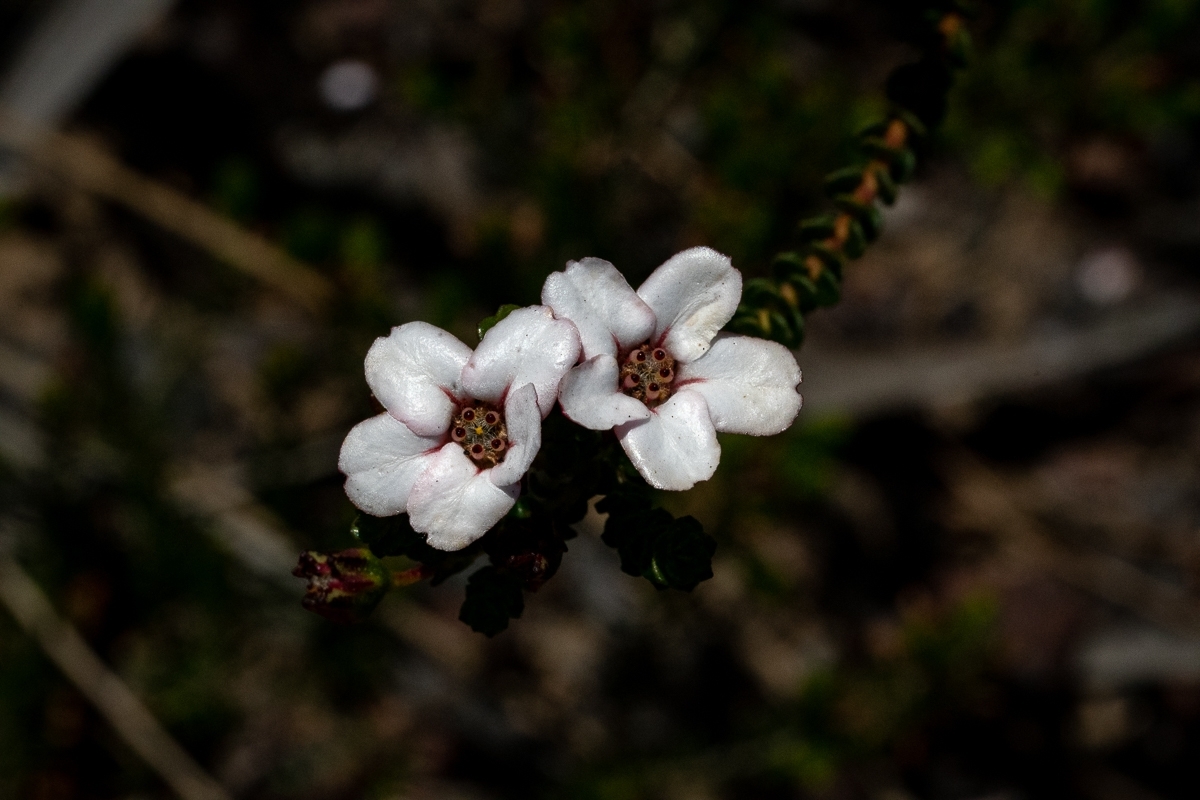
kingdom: Plantae
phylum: Tracheophyta
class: Magnoliopsida
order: Sapindales
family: Rutaceae
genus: Adenandra
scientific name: Adenandra brachyphylla
